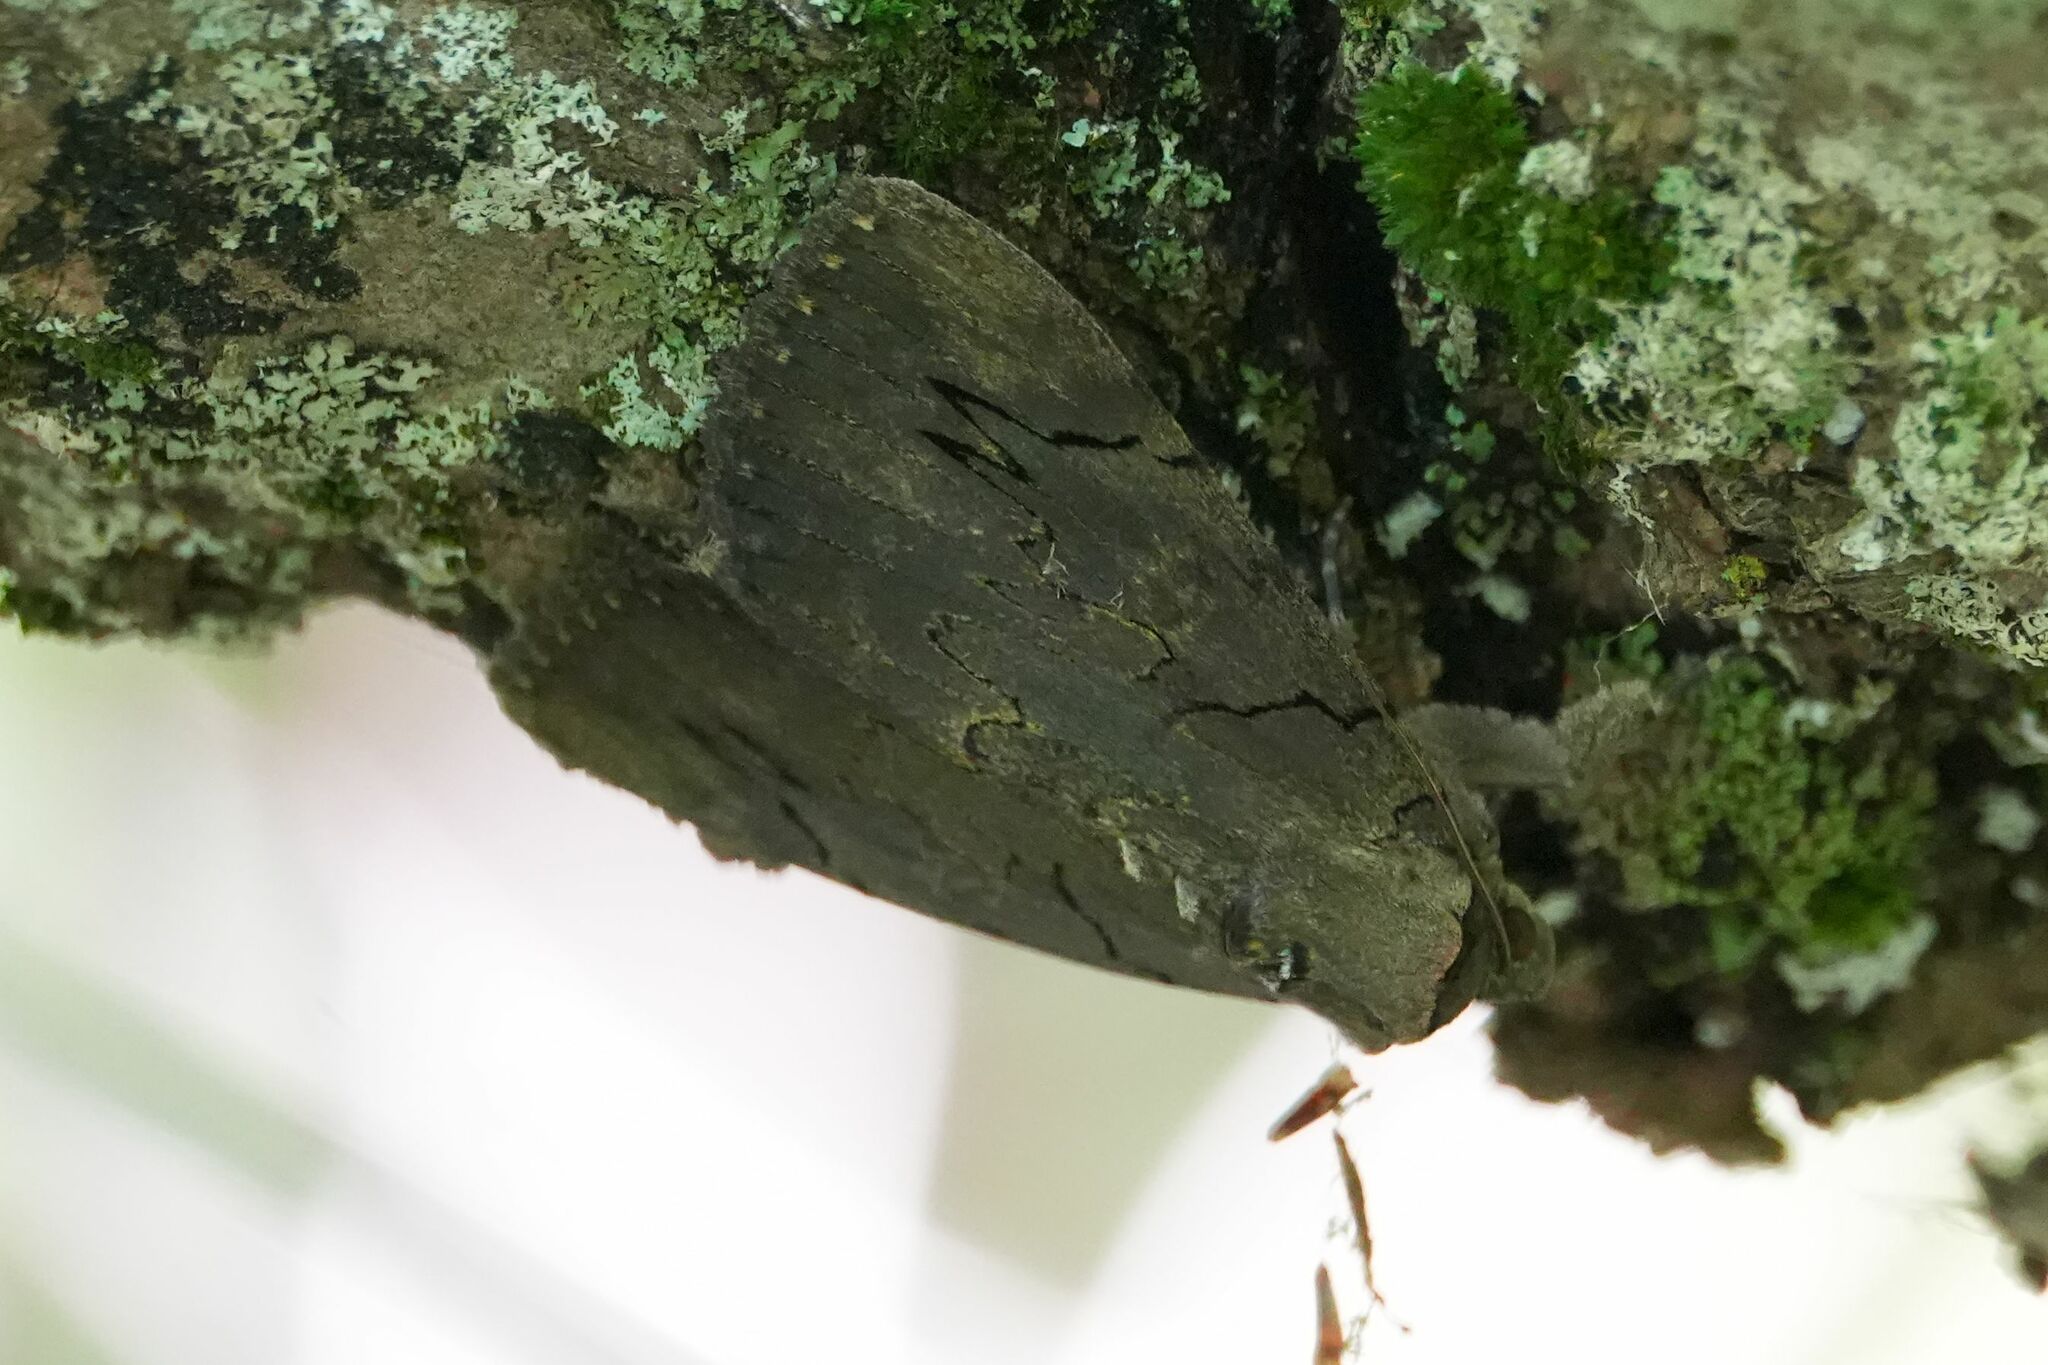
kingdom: Animalia
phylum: Arthropoda
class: Insecta
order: Lepidoptera
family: Erebidae
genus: Catocala
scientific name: Catocala cara
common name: Darling underwing
